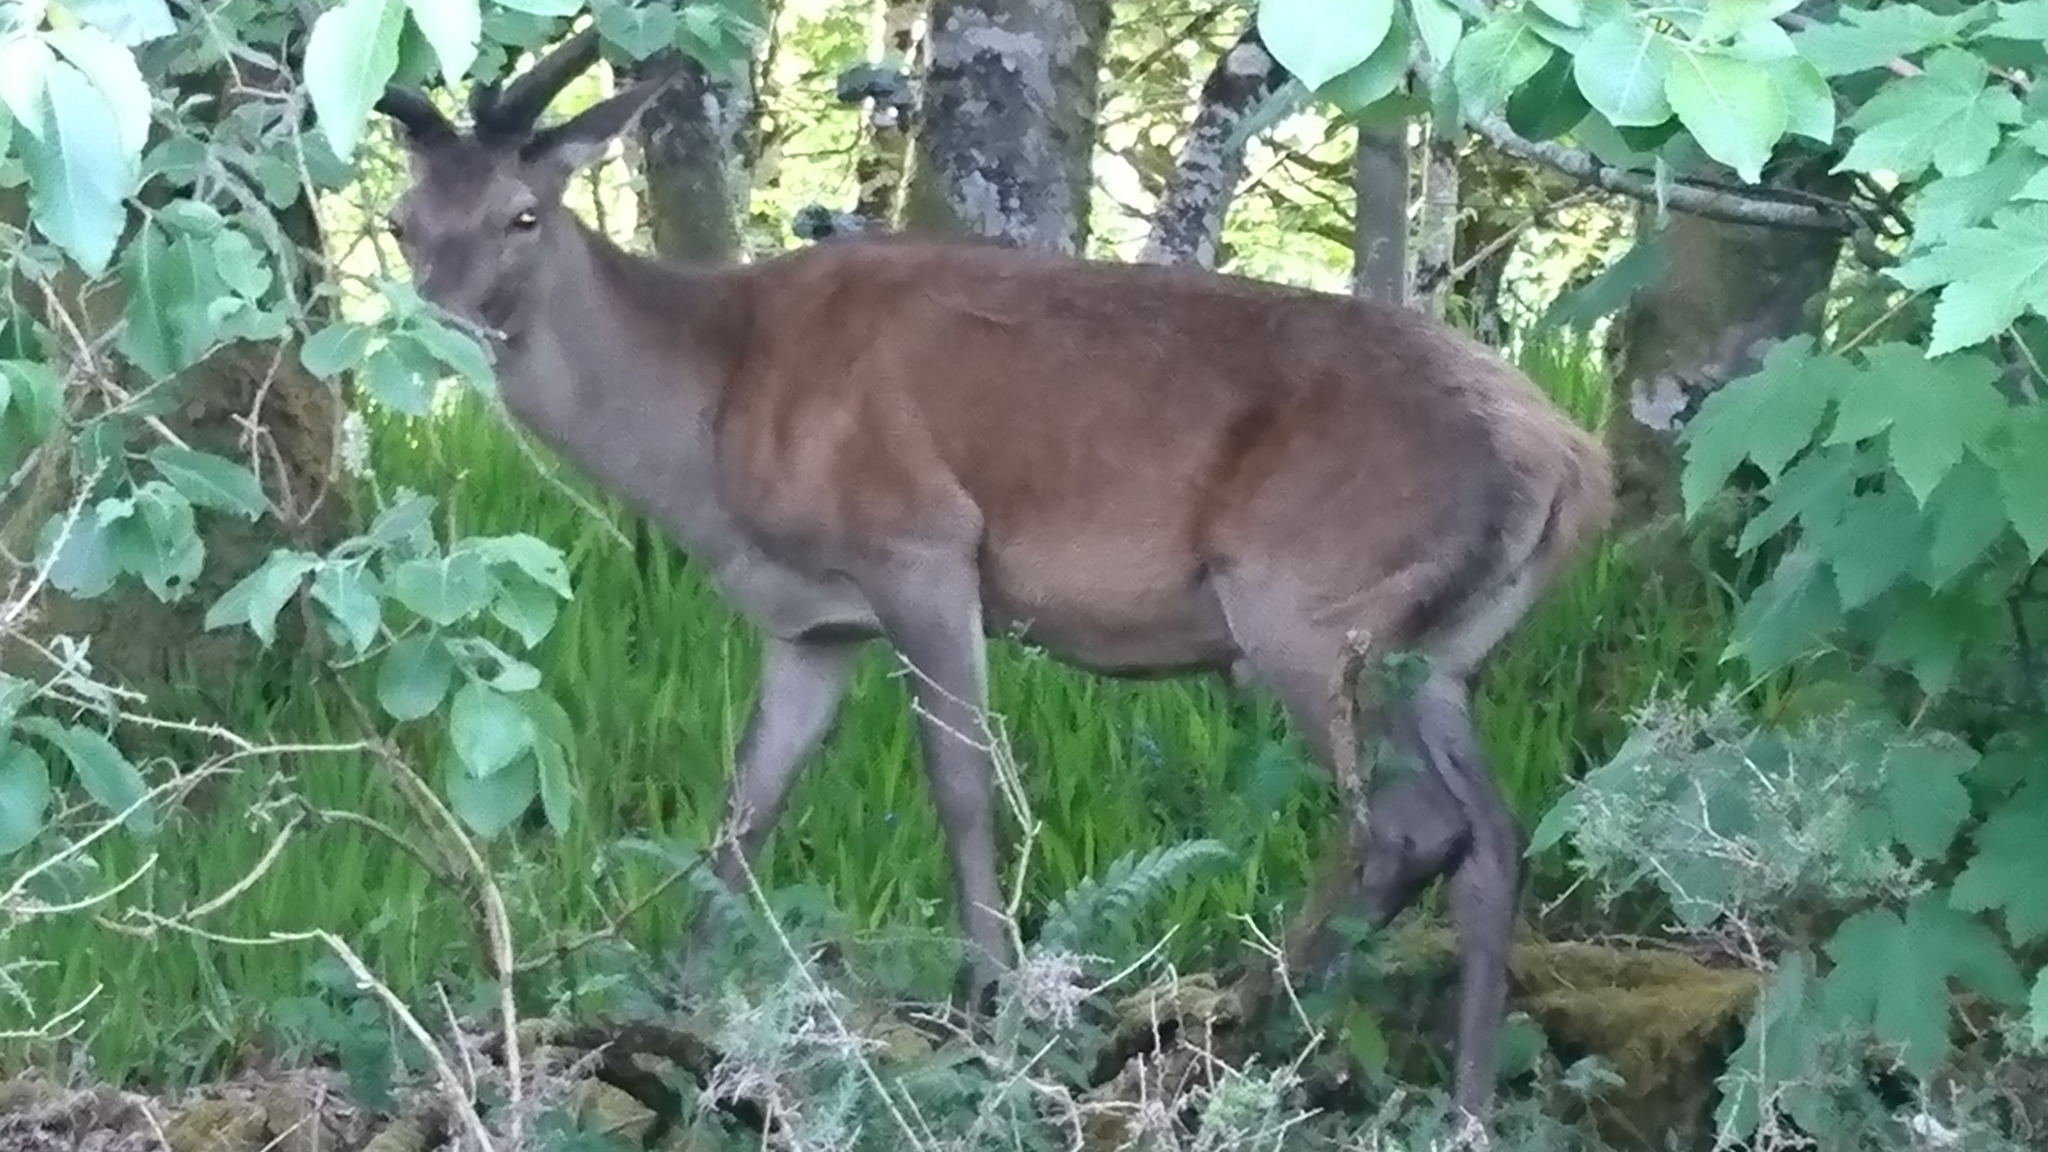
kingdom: Animalia
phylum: Chordata
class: Mammalia
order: Artiodactyla
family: Cervidae
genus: Cervus
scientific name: Cervus elaphus
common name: Red deer
